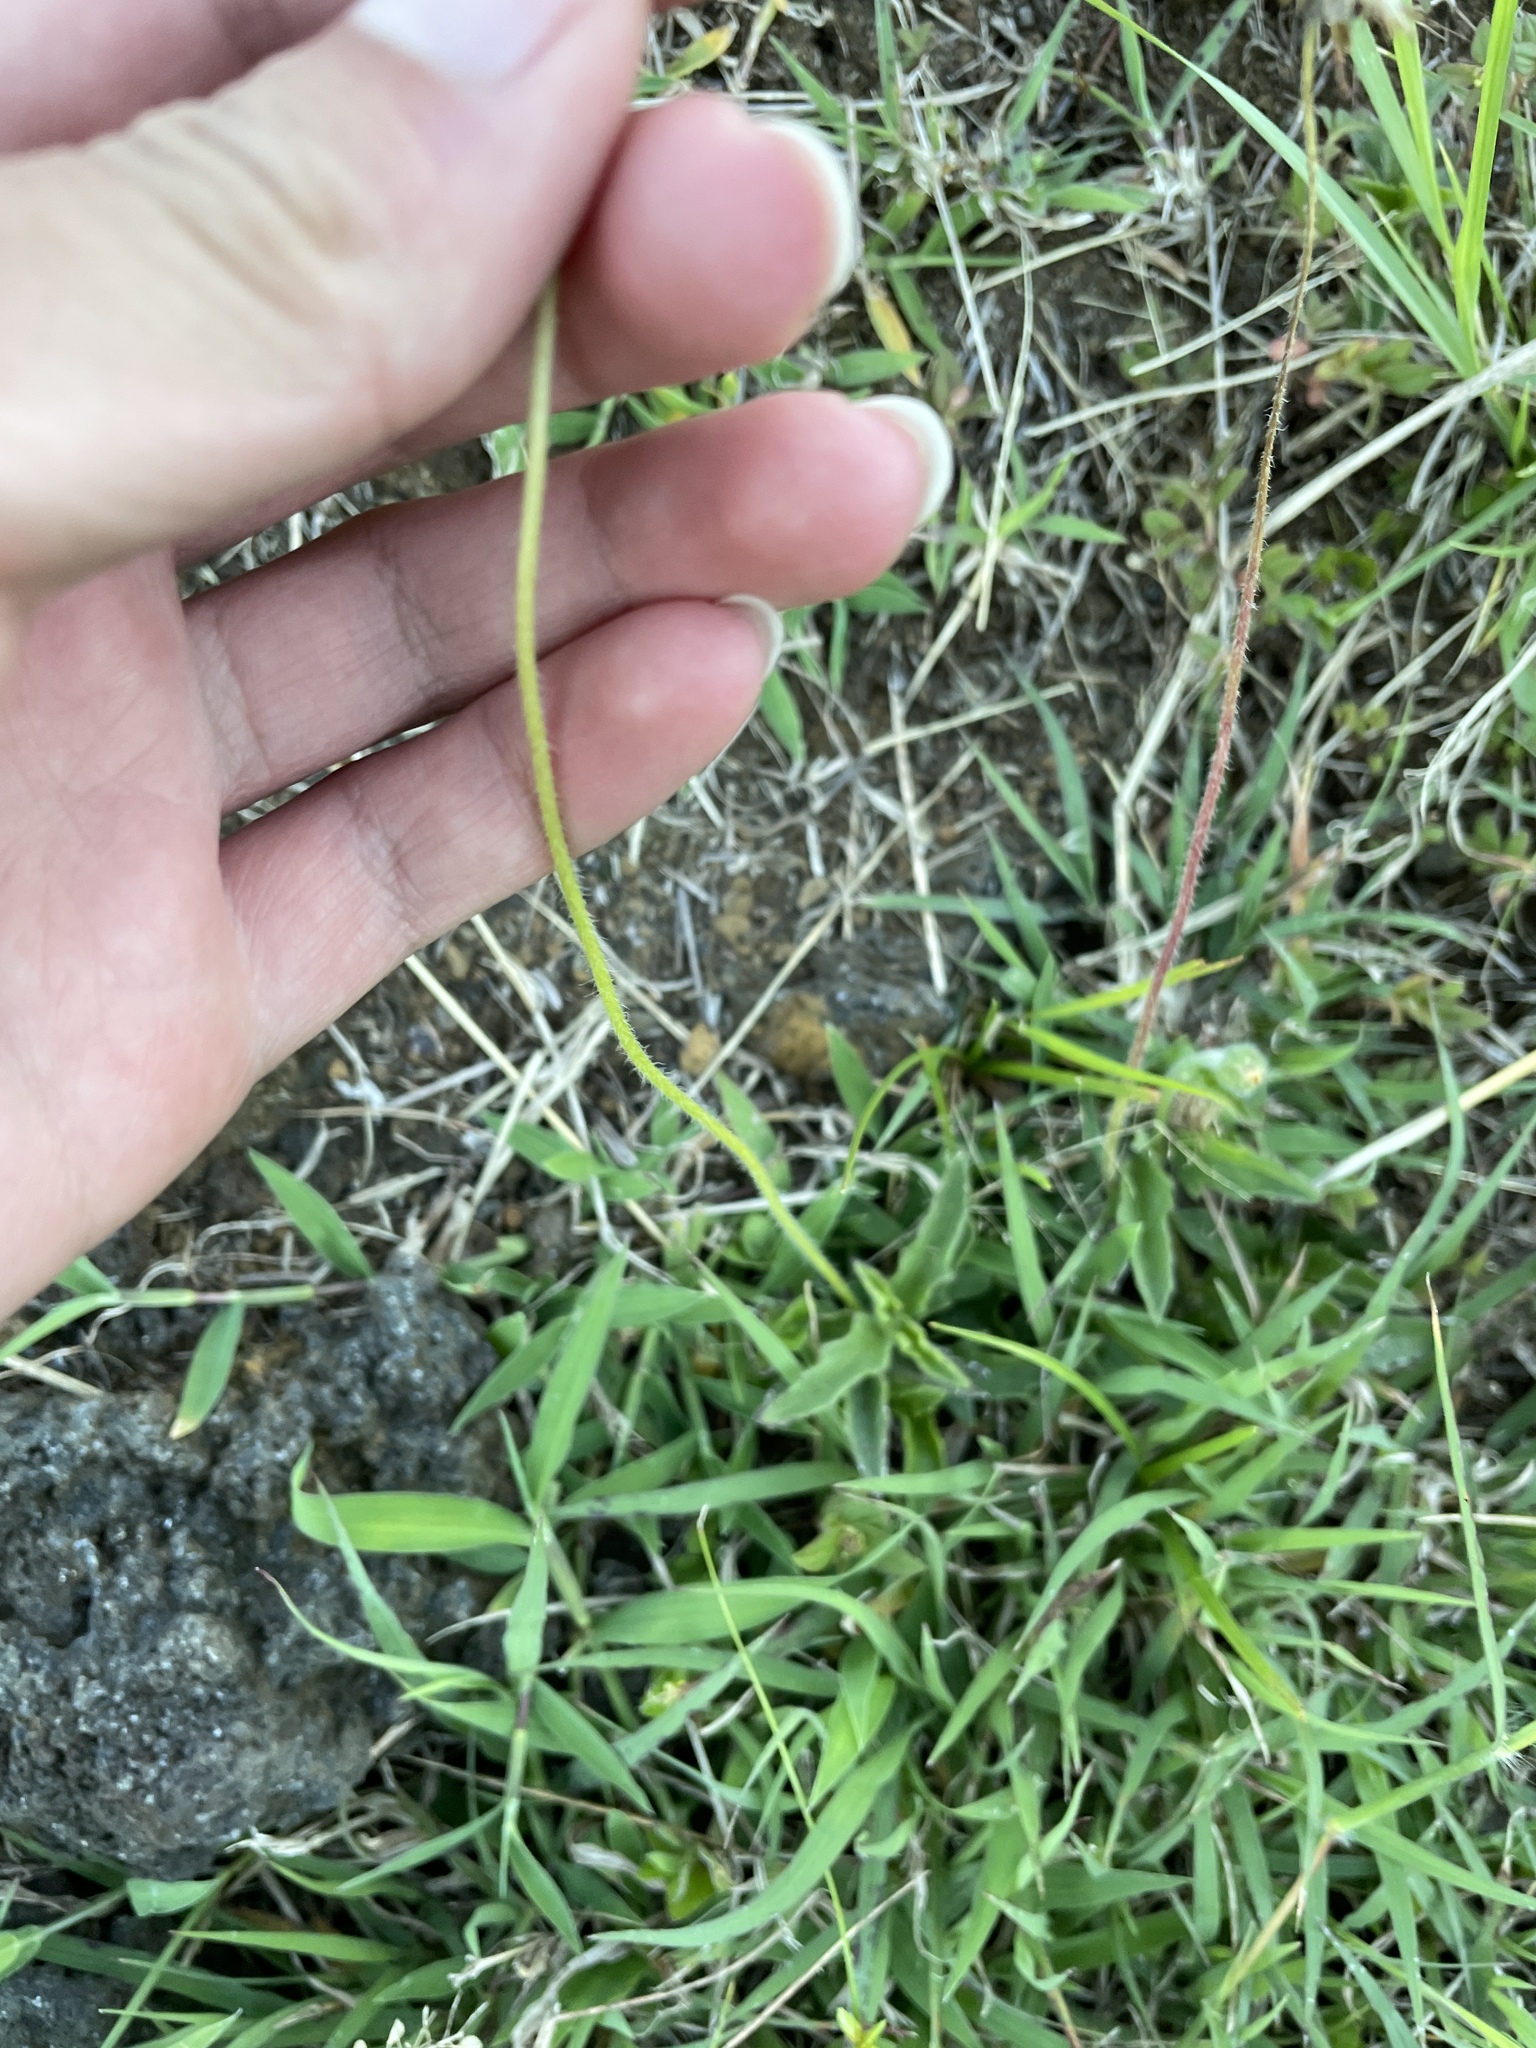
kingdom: Plantae
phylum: Tracheophyta
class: Magnoliopsida
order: Asterales
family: Asteraceae
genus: Tridax
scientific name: Tridax procumbens
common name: Coatbuttons
